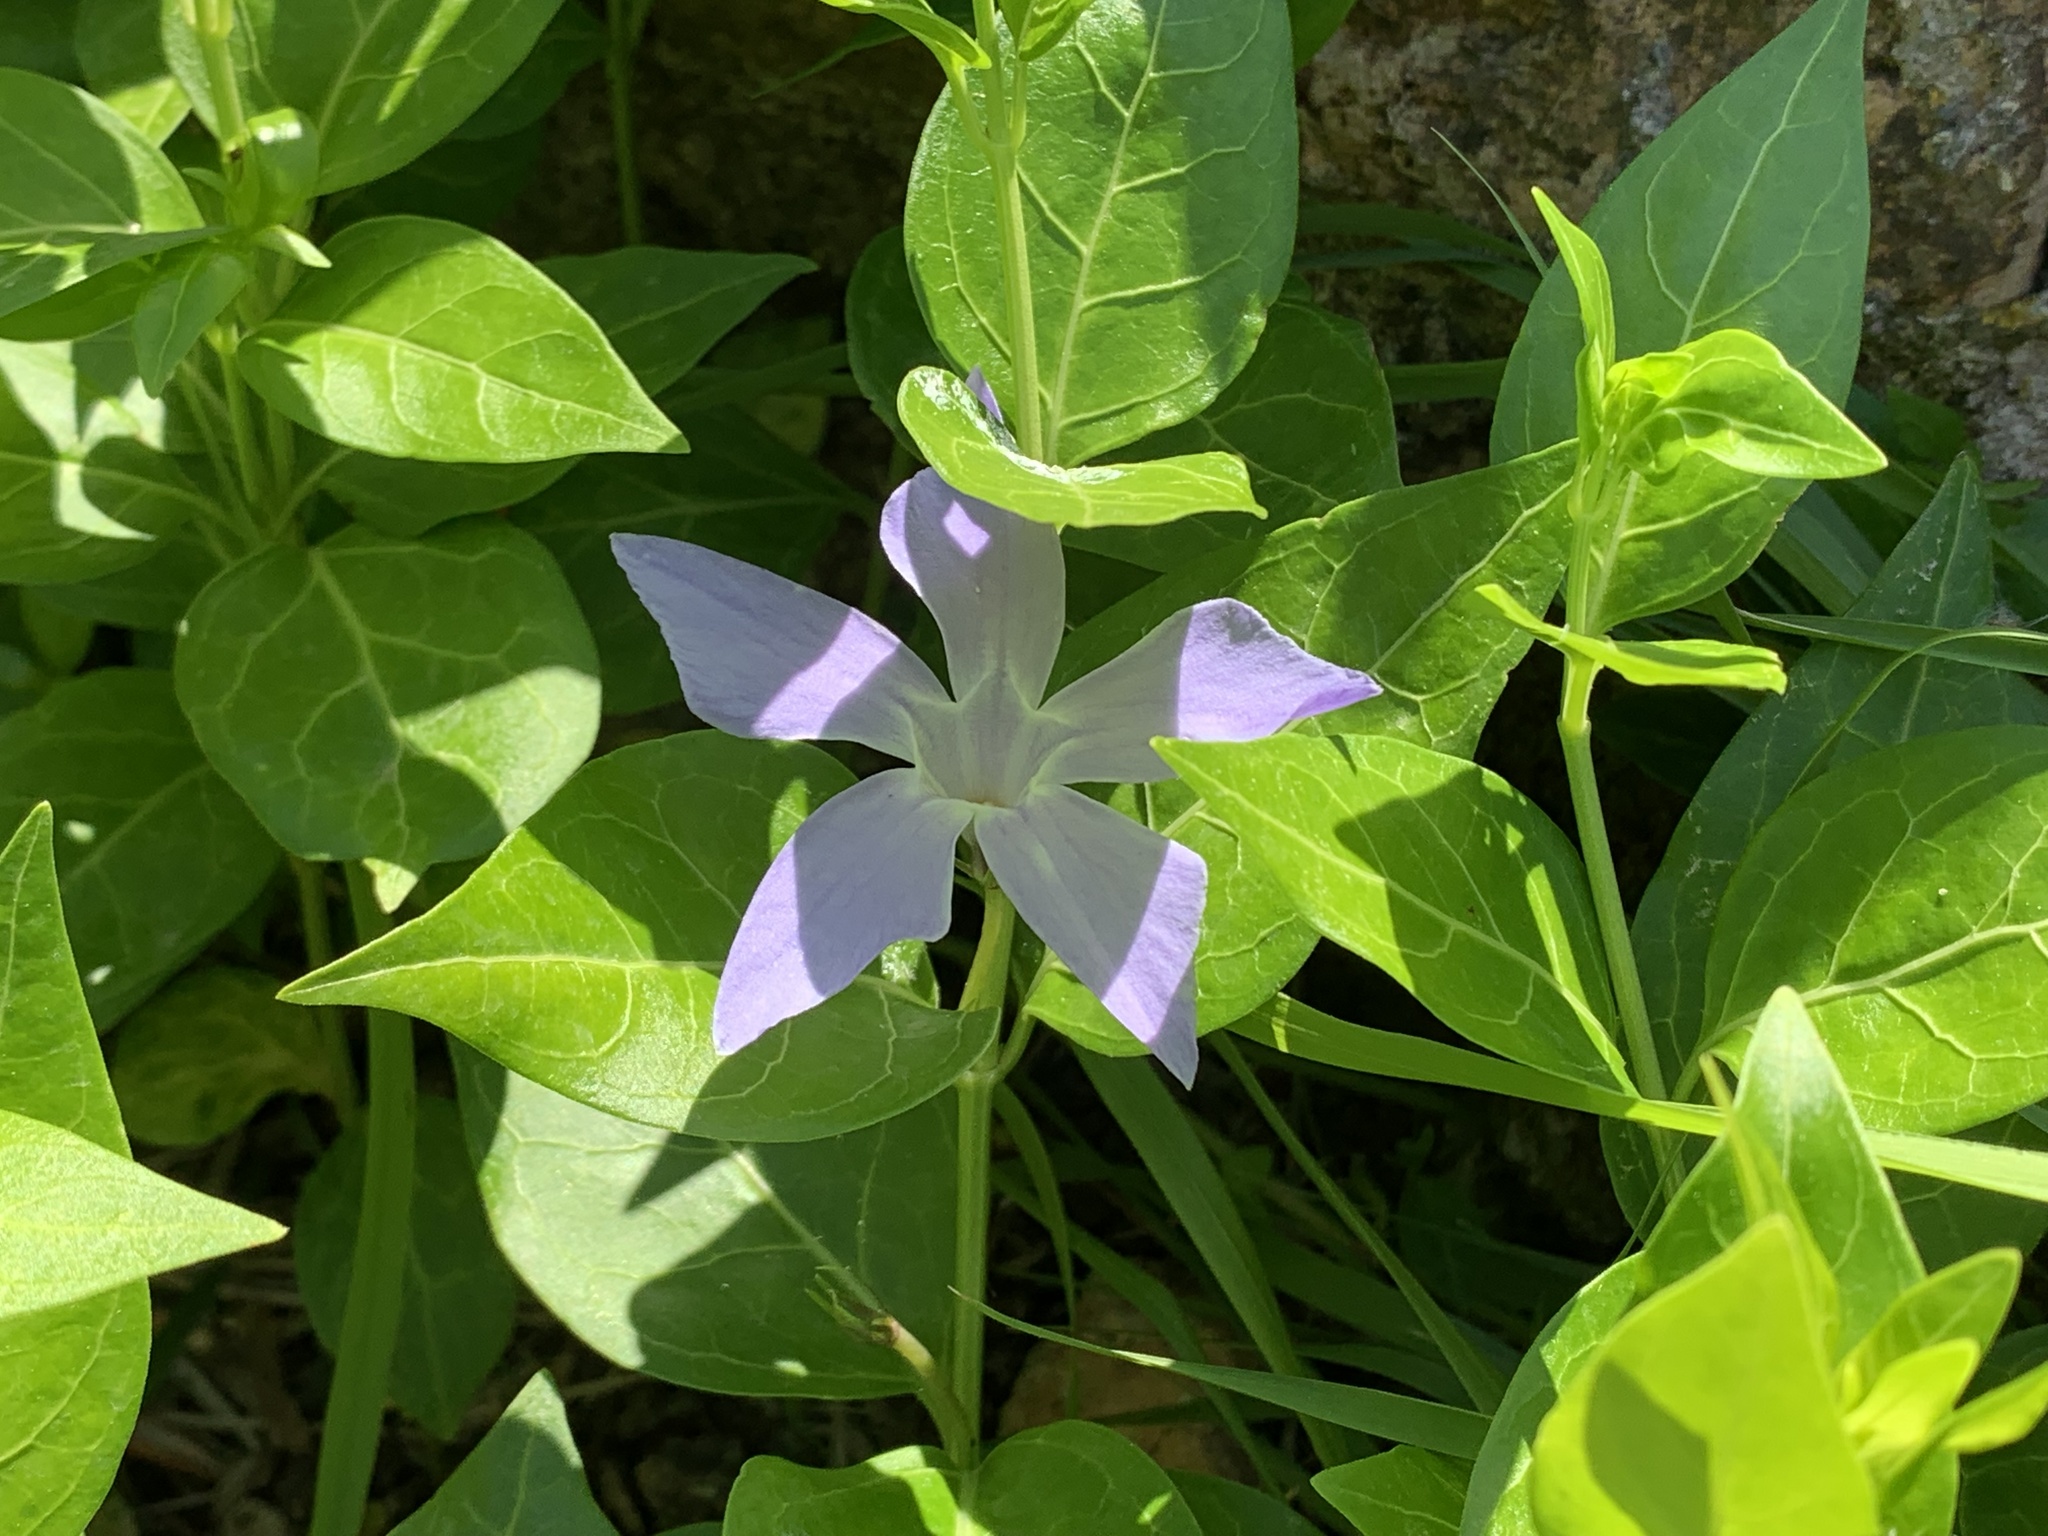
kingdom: Plantae
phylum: Tracheophyta
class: Magnoliopsida
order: Gentianales
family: Apocynaceae
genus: Vinca
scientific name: Vinca major
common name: Greater periwinkle
